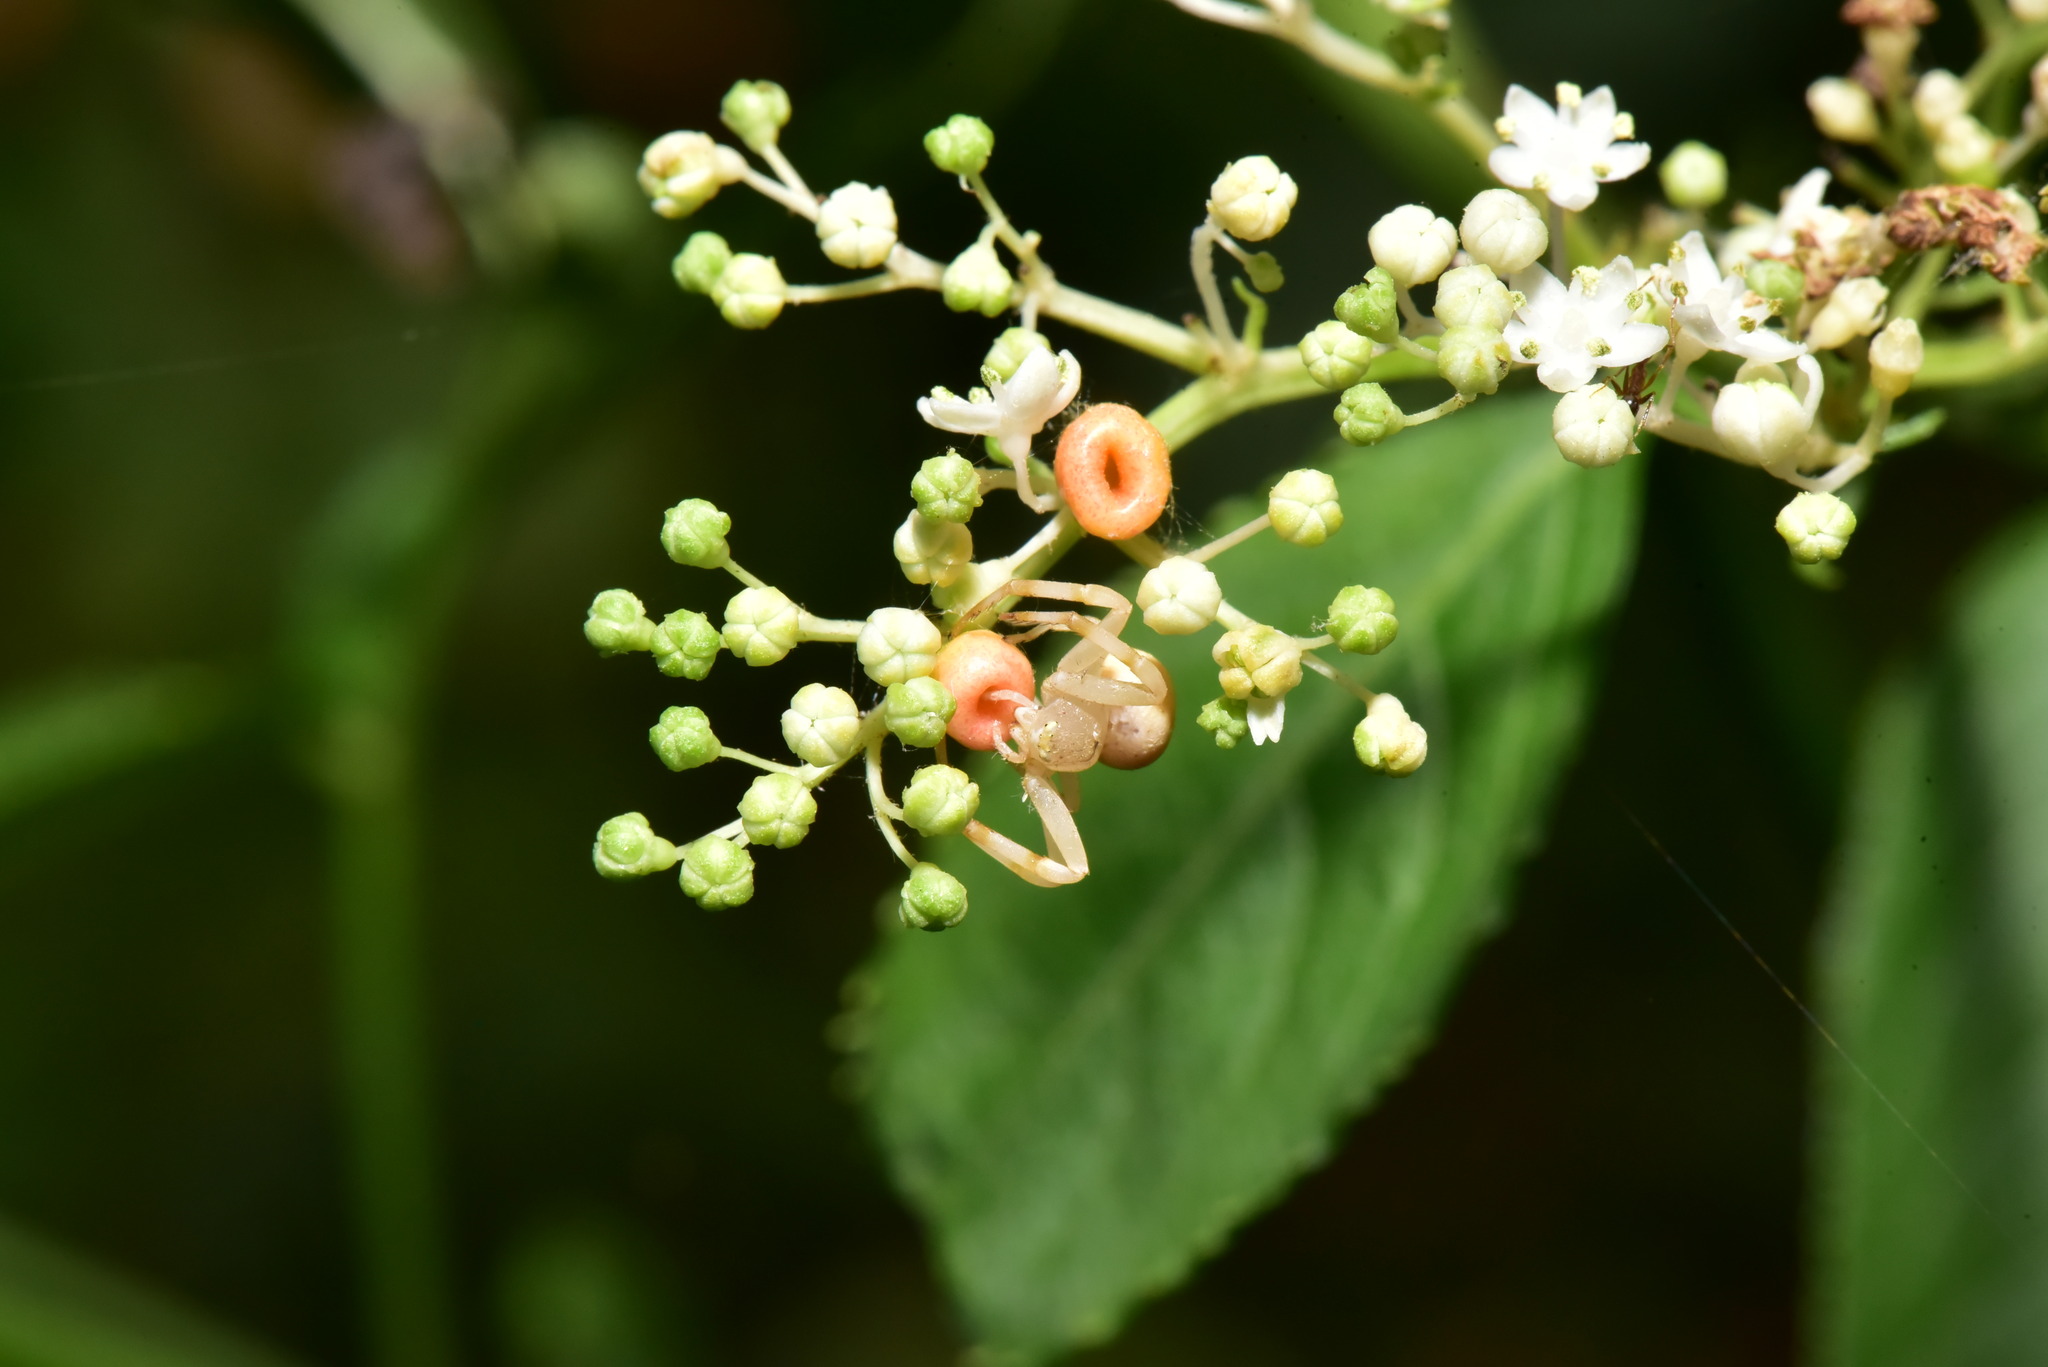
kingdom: Animalia
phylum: Arthropoda
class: Arachnida
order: Araneae
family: Thomisidae
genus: Mastira
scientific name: Mastira bipunctata
